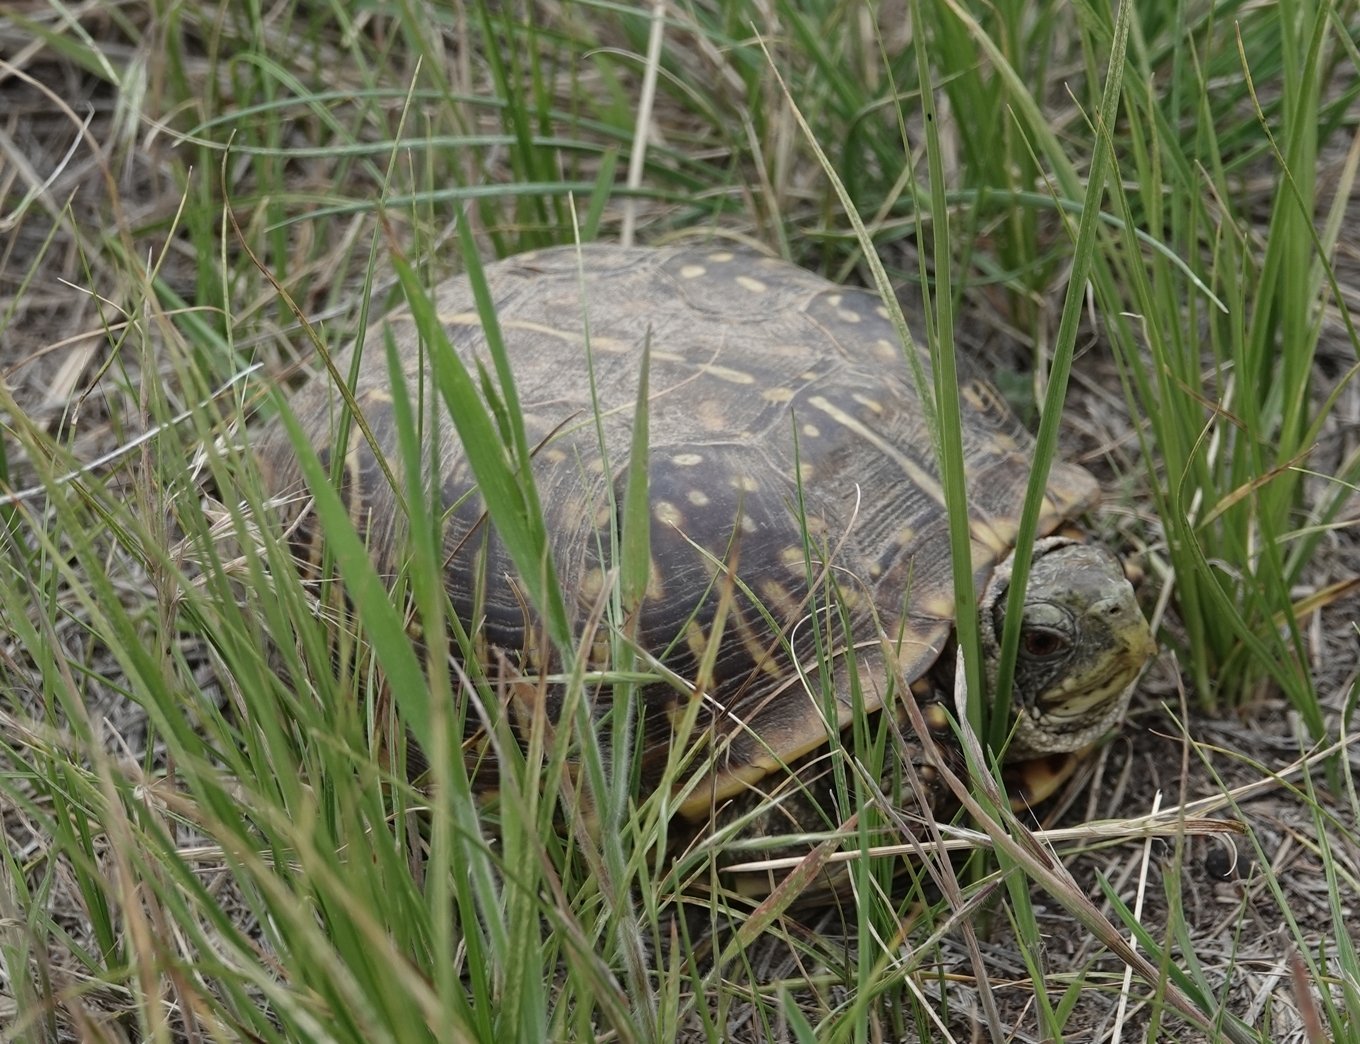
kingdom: Animalia
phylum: Chordata
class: Testudines
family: Emydidae
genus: Terrapene
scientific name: Terrapene ornata
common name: Western box turtle
